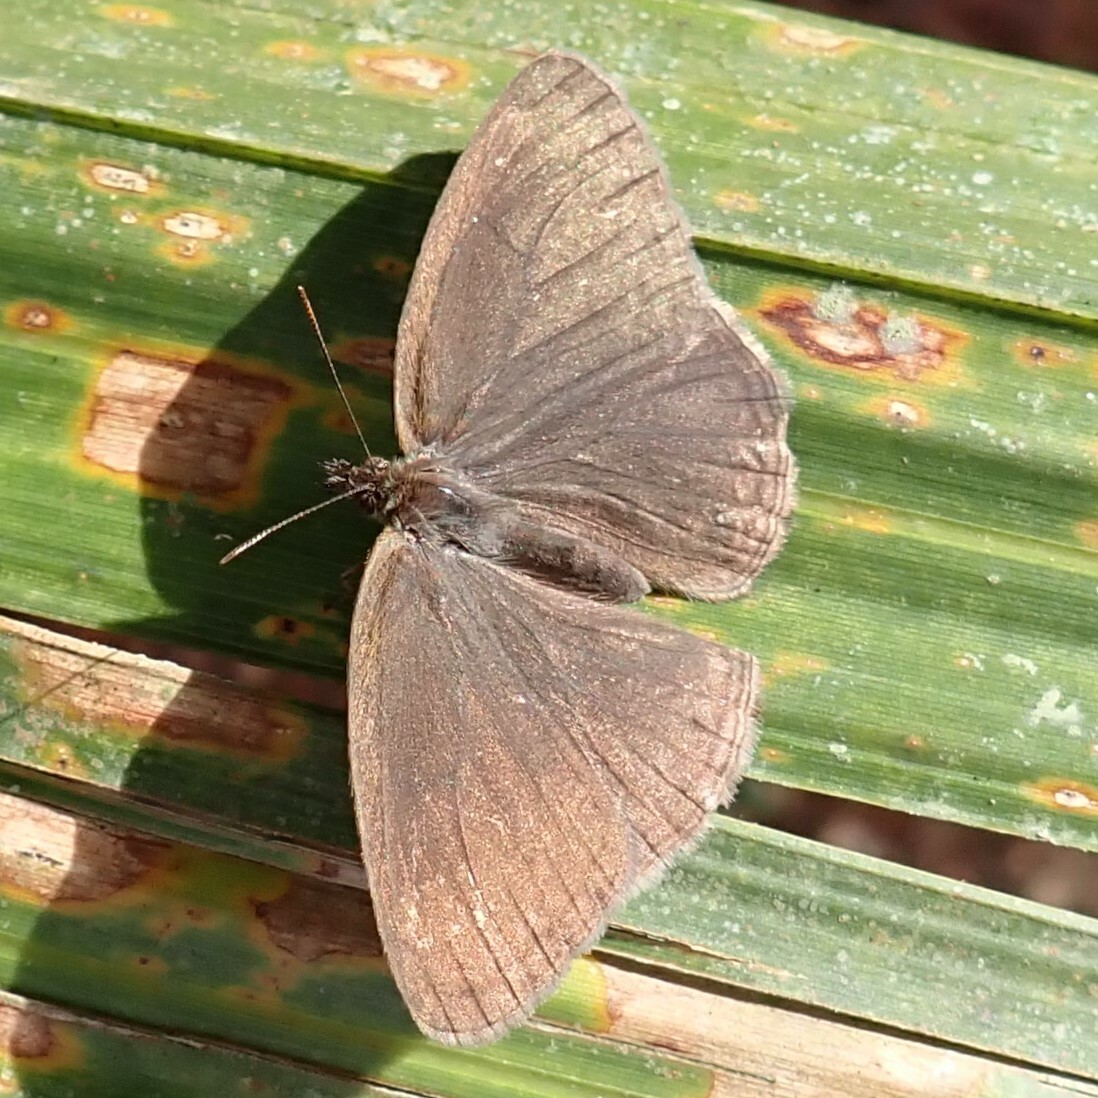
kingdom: Animalia
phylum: Arthropoda
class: Insecta
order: Lepidoptera
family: Nymphalidae
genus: Hermeuptychia
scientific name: Hermeuptychia
